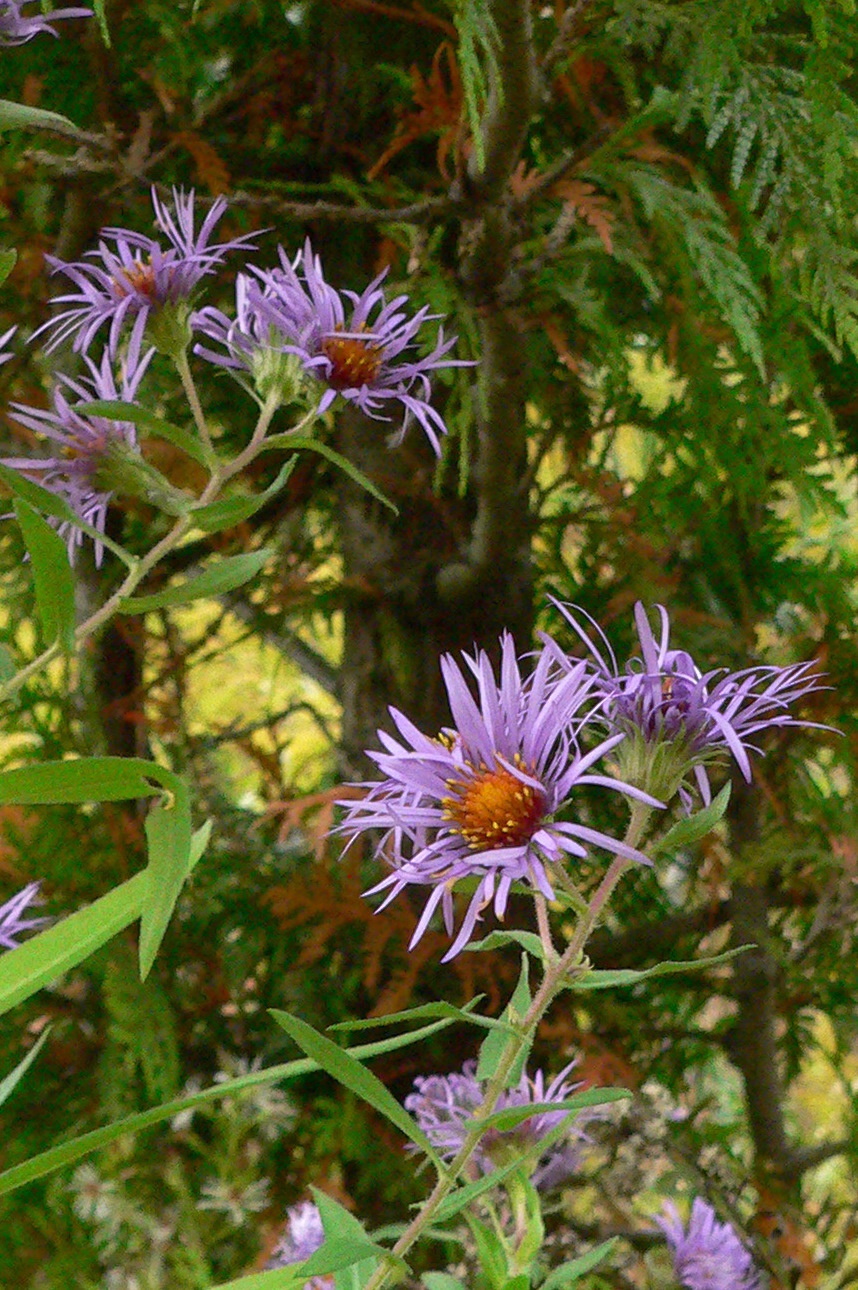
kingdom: Plantae
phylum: Tracheophyta
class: Magnoliopsida
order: Asterales
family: Asteraceae
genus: Symphyotrichum
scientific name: Symphyotrichum novae-angliae
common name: Michaelmas daisy
